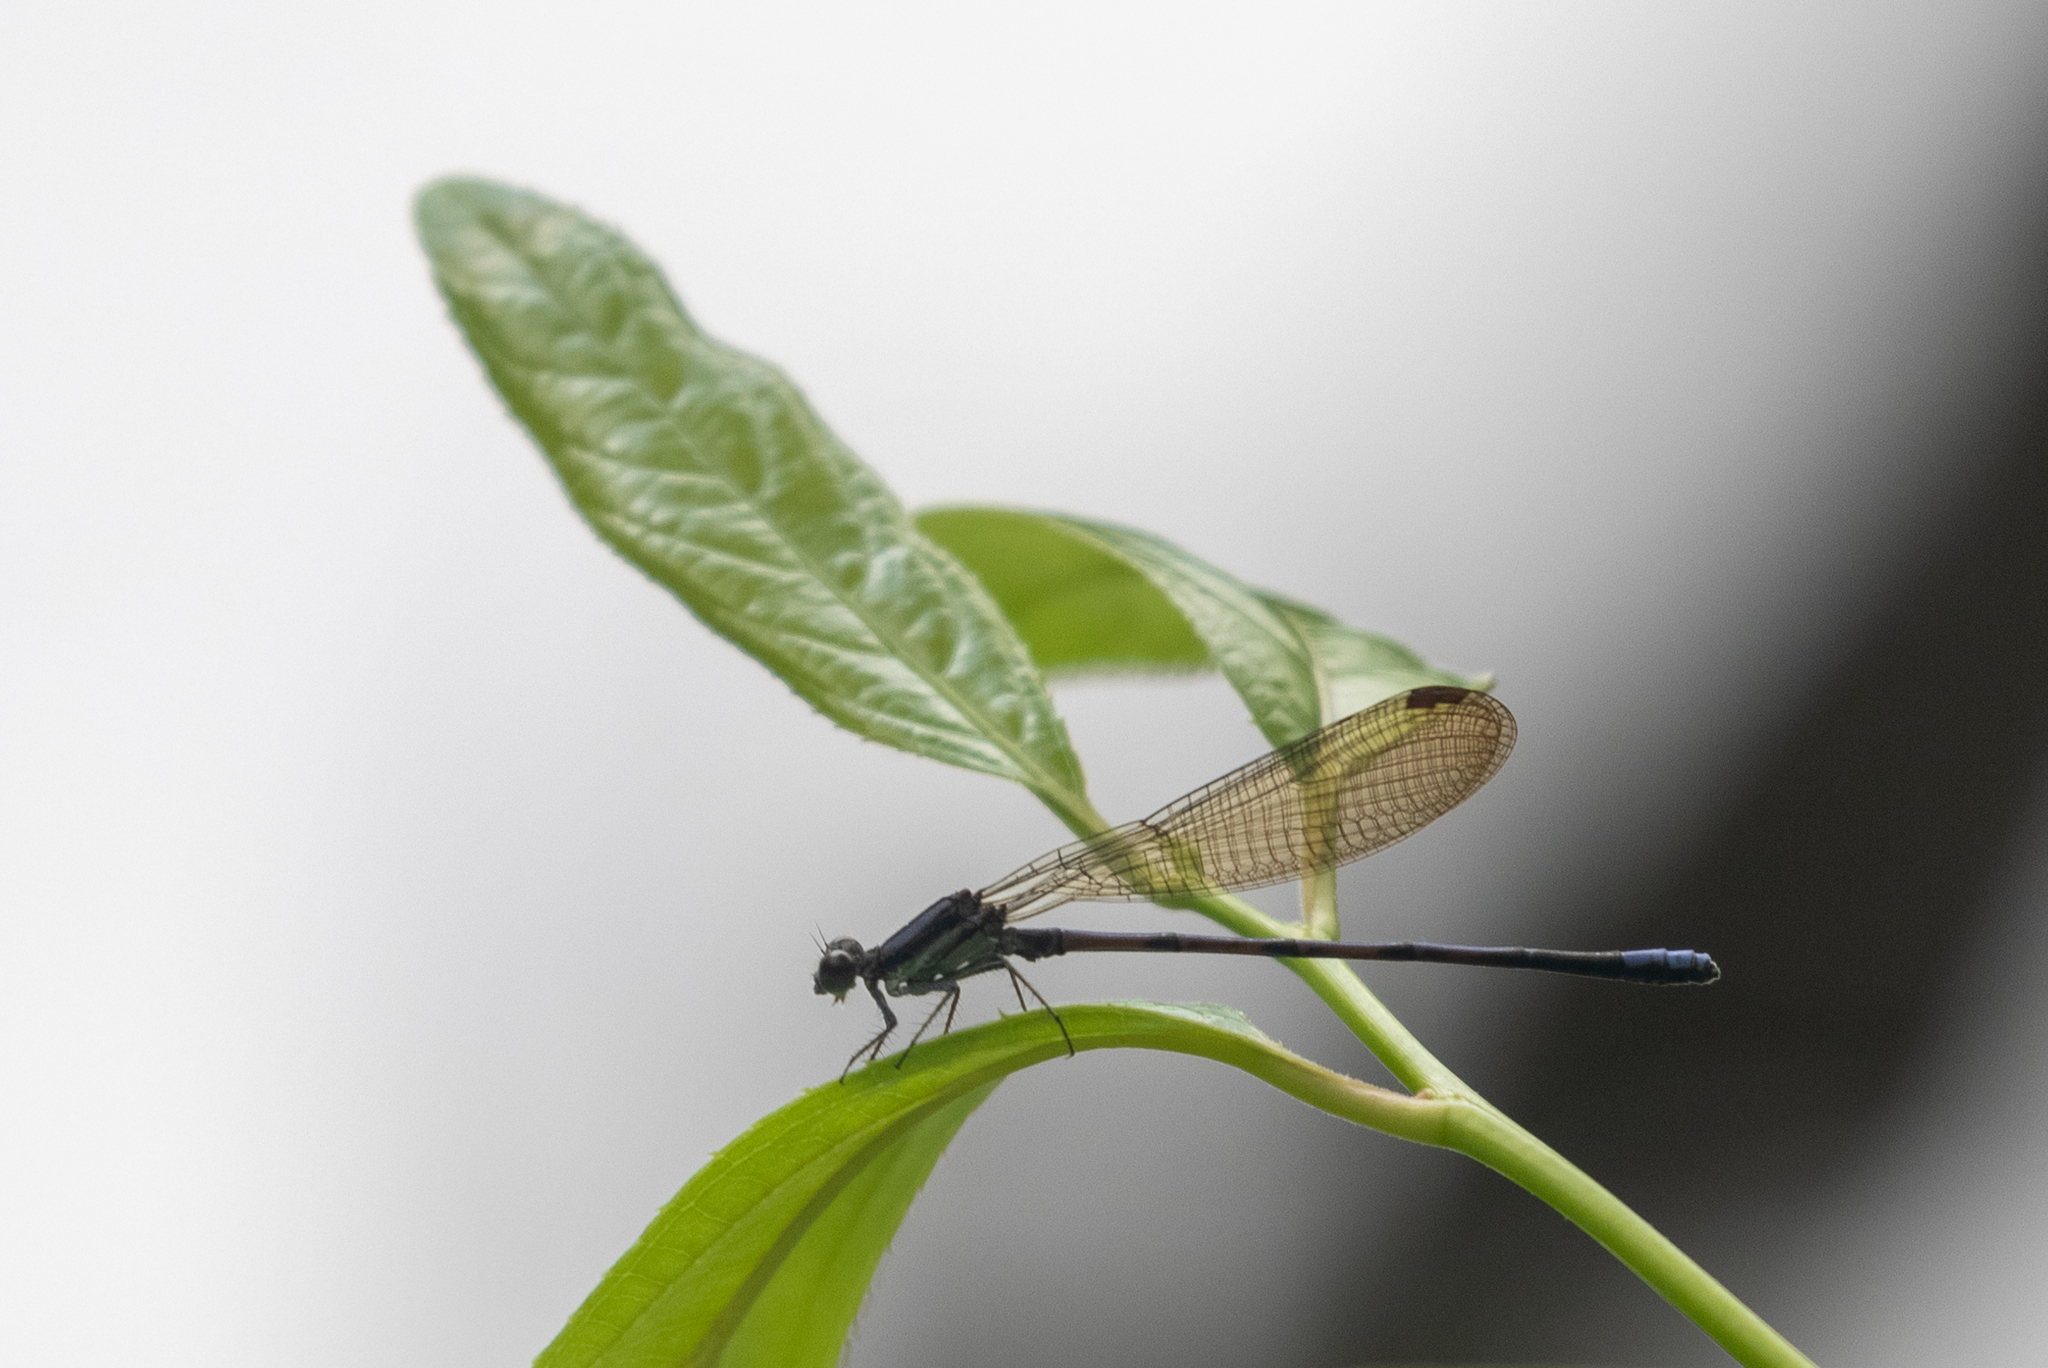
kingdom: Animalia
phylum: Arthropoda
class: Insecta
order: Odonata
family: Coenagrionidae
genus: Argia
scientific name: Argia fumipennis
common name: Variable dancer
